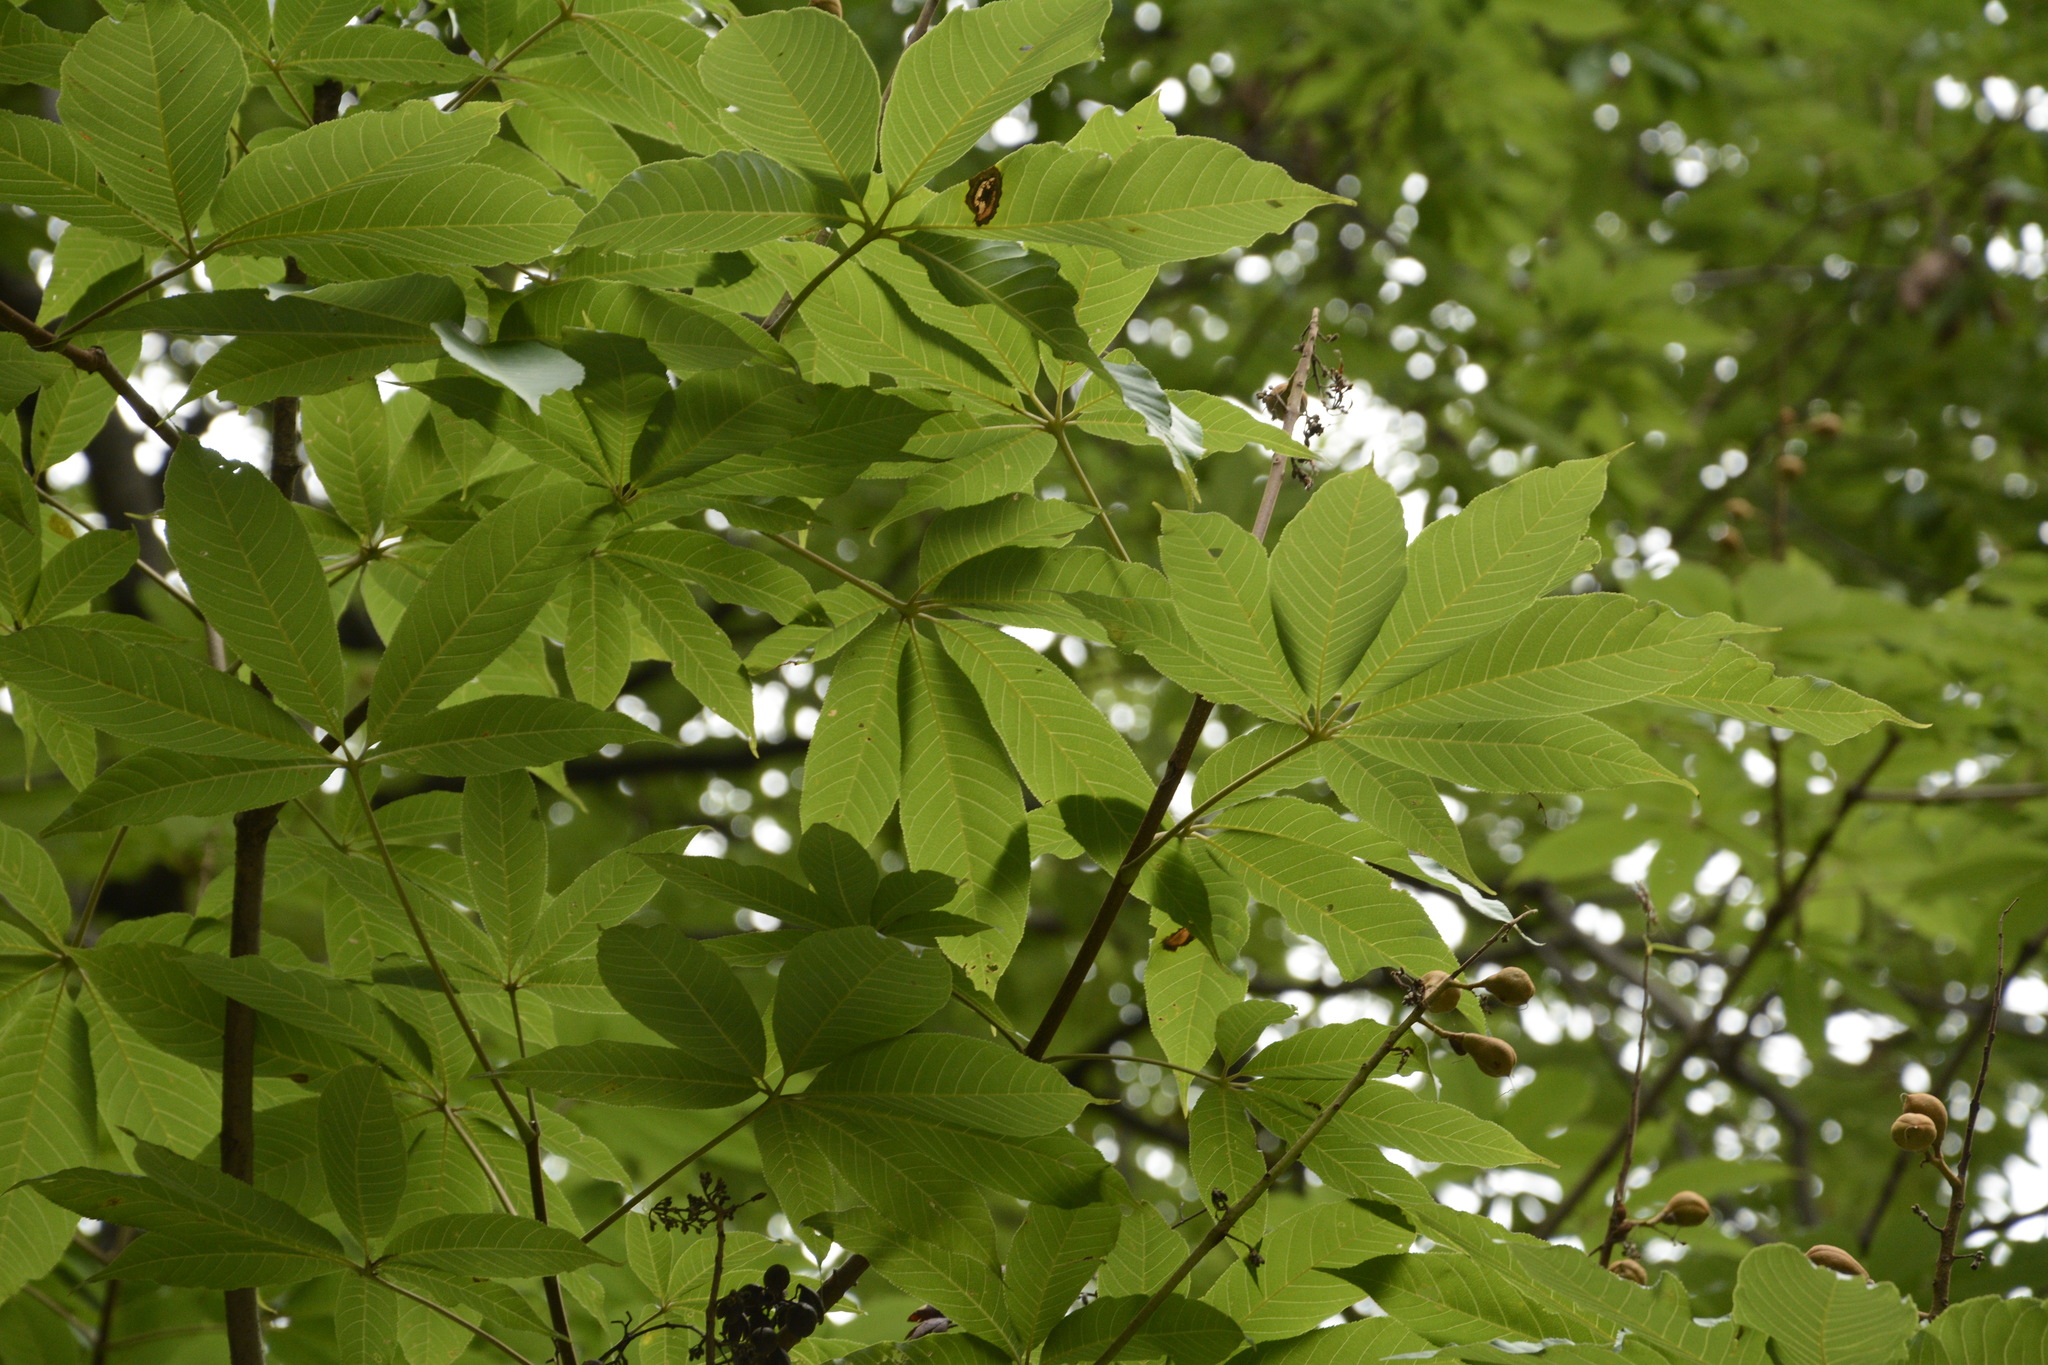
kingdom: Plantae
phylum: Tracheophyta
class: Magnoliopsida
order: Sapindales
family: Sapindaceae
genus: Aesculus
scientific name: Aesculus indica
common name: Indian horse-chestnut
